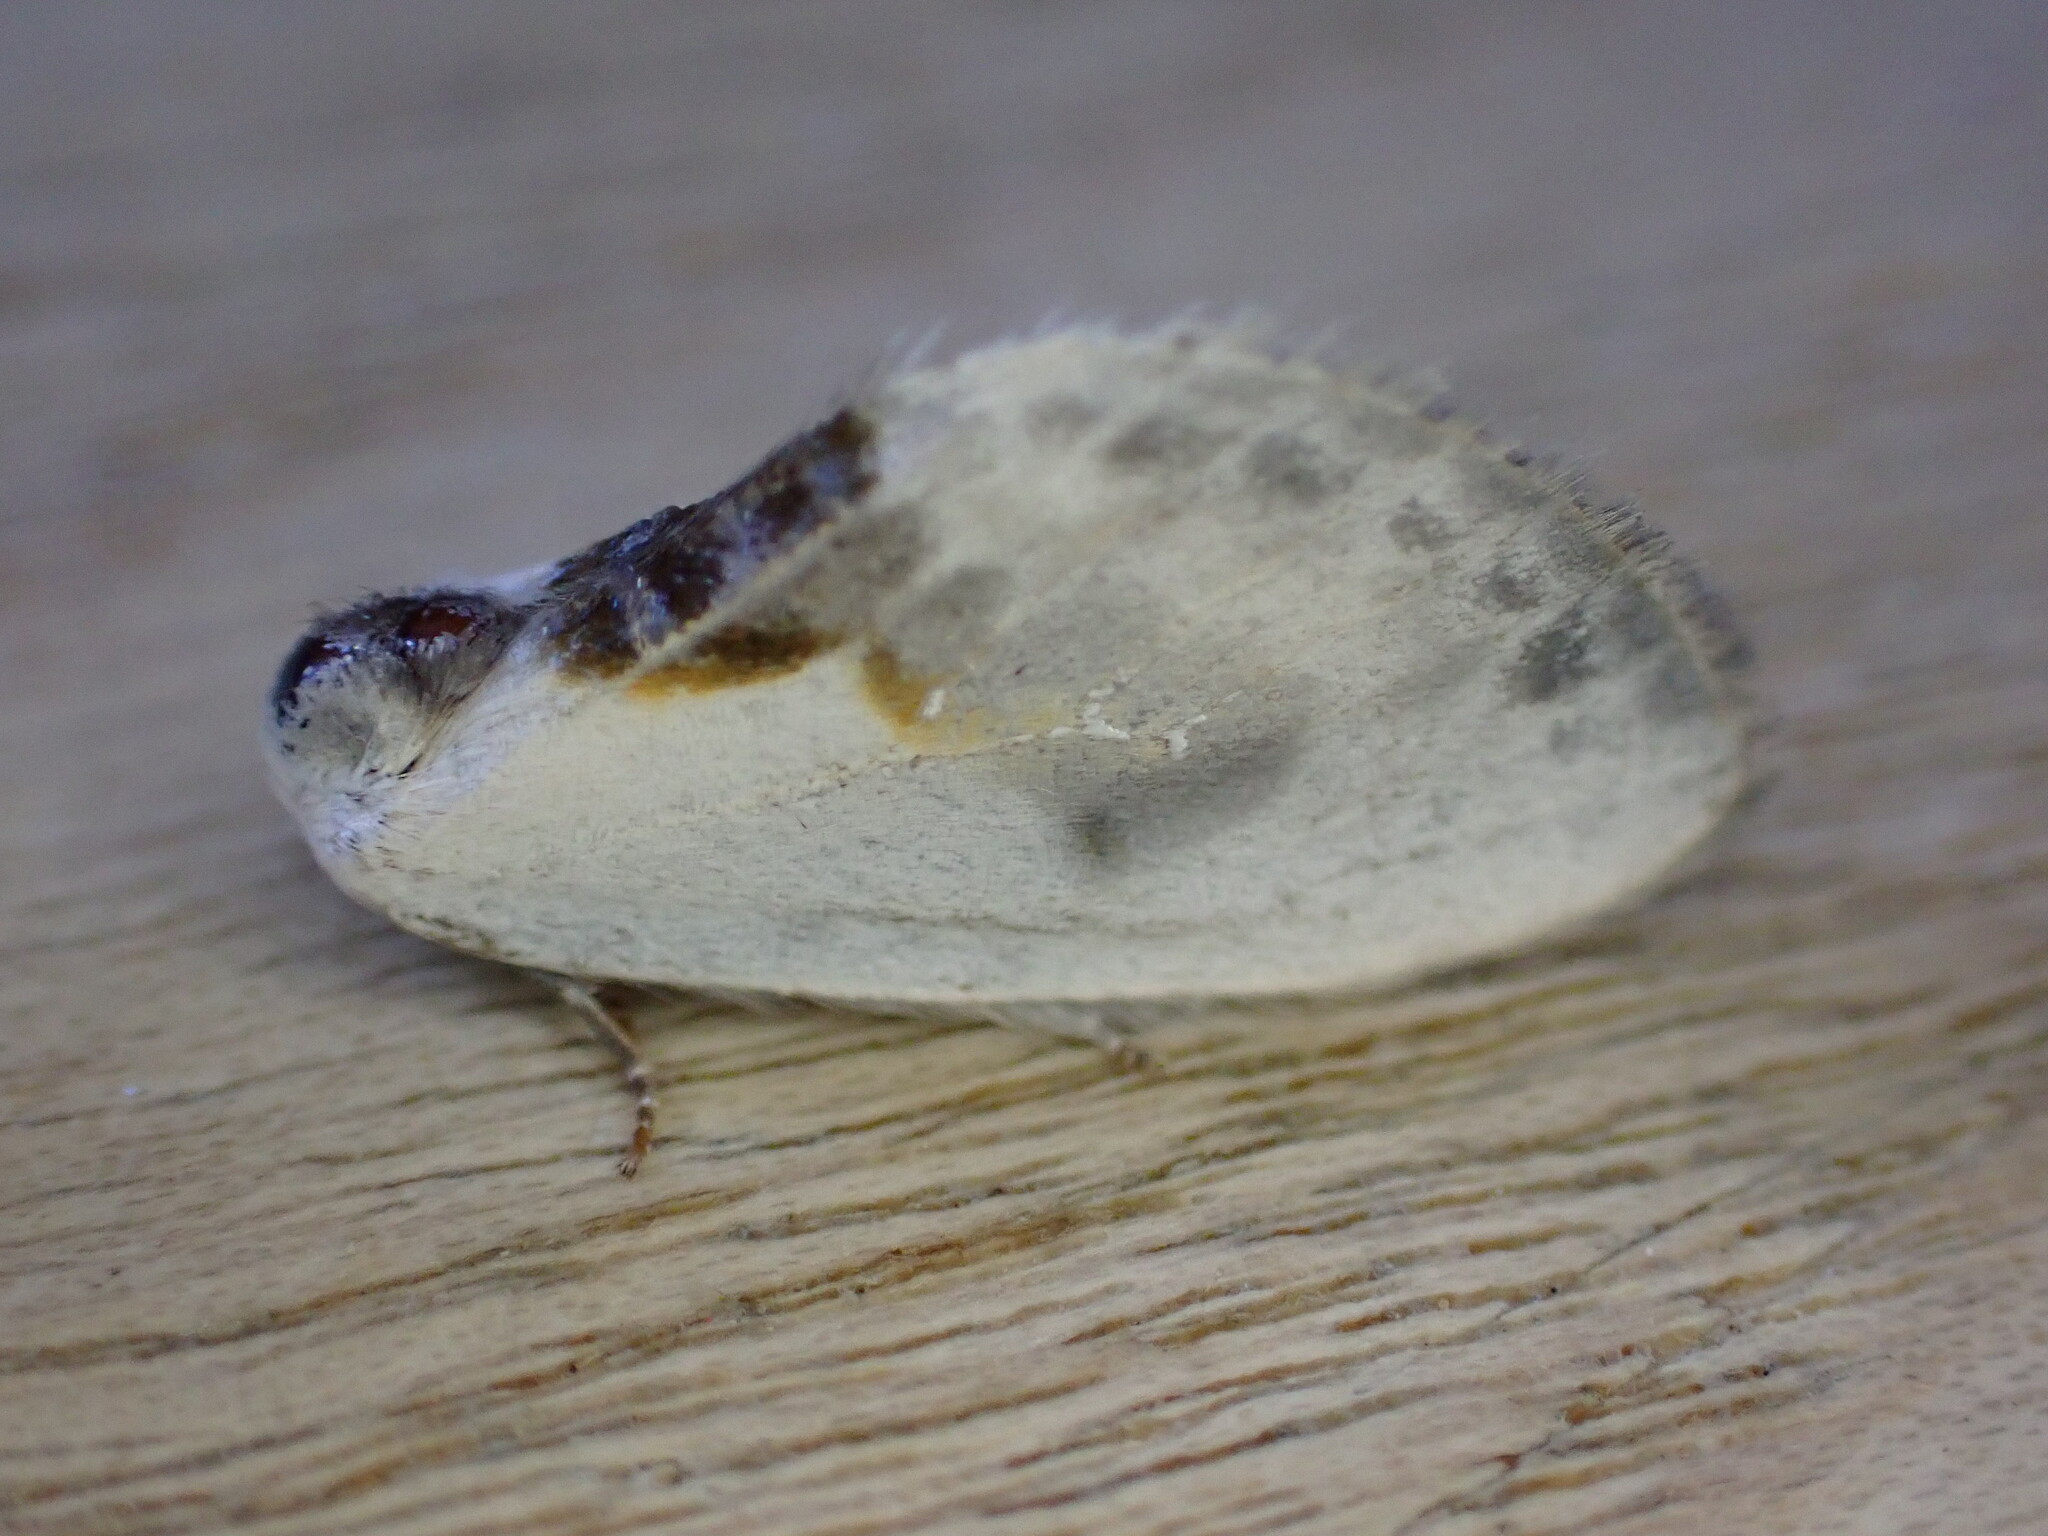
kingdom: Animalia
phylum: Arthropoda
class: Insecta
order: Lepidoptera
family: Drepanidae
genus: Cilix
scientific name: Cilix glaucata
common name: Chinese character
